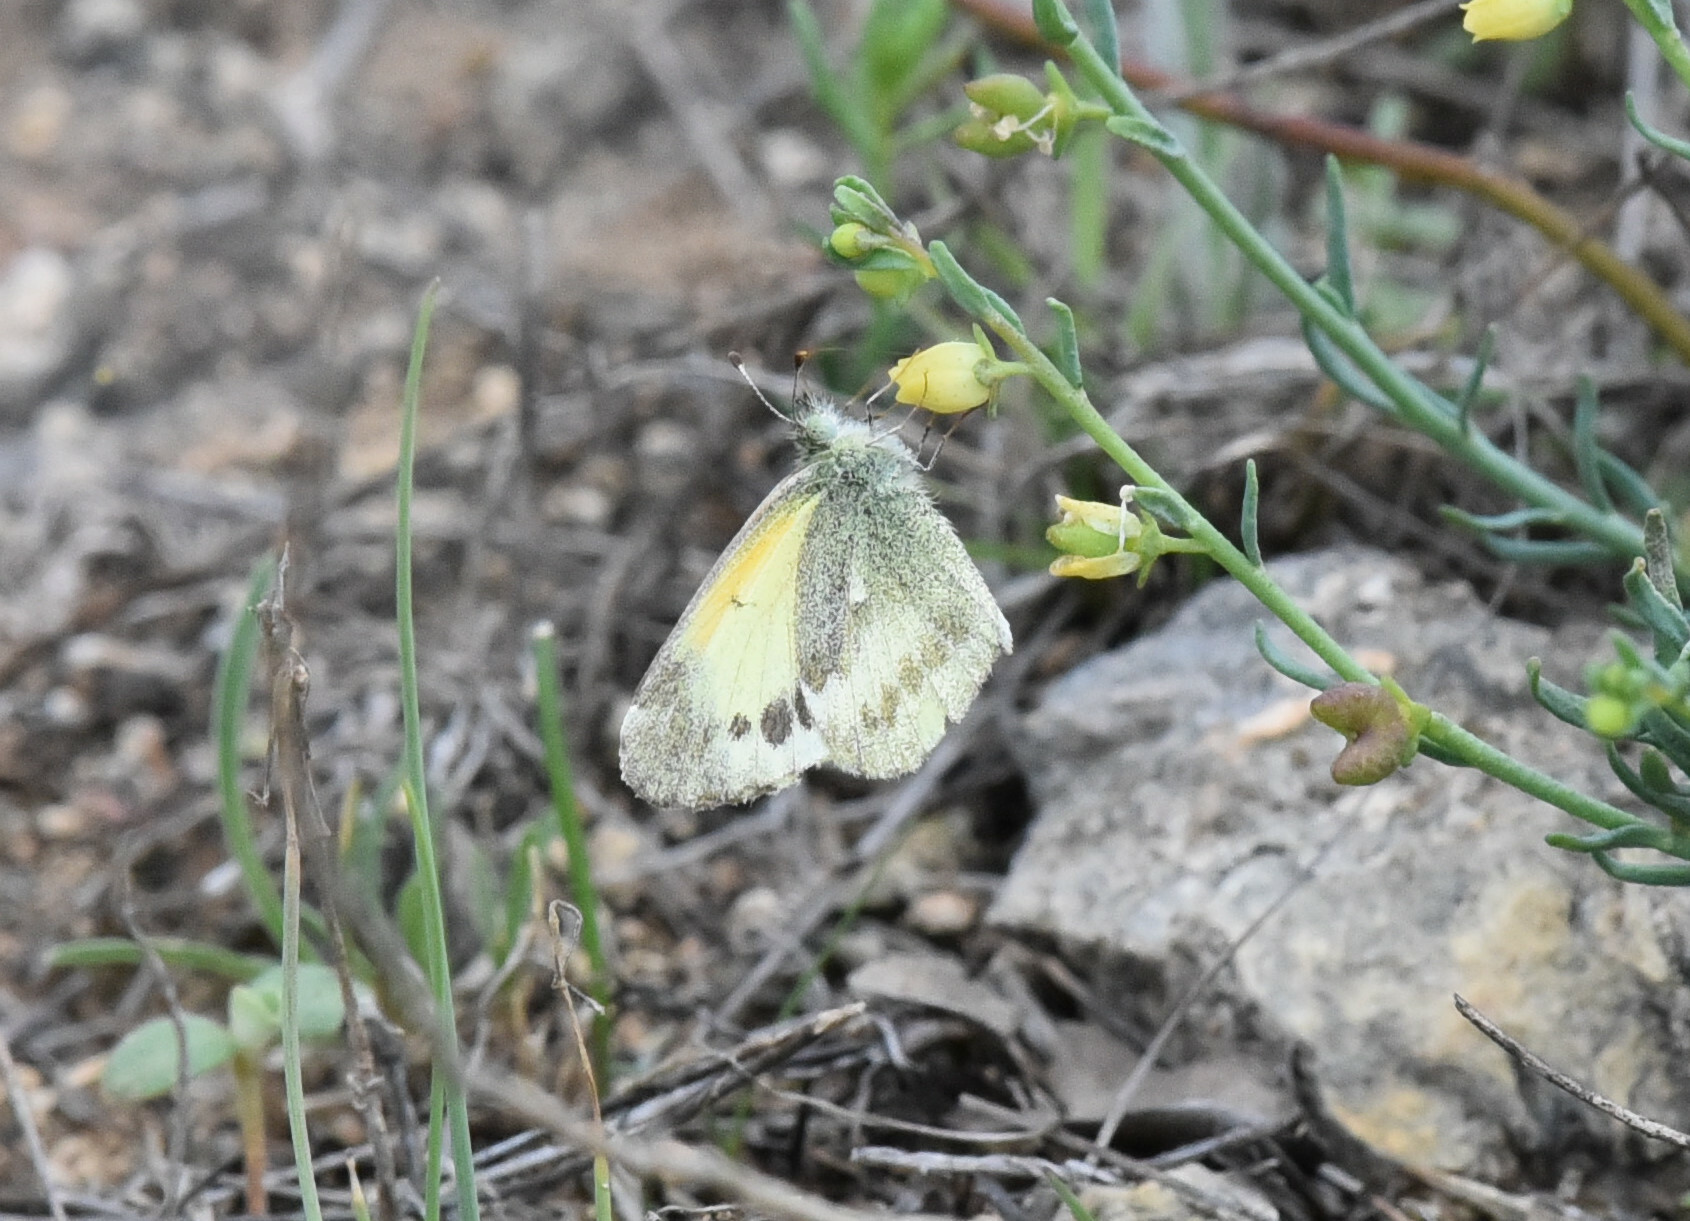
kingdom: Animalia
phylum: Arthropoda
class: Insecta
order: Lepidoptera
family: Pieridae
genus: Nathalis
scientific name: Nathalis iole
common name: Dainty sulphur
